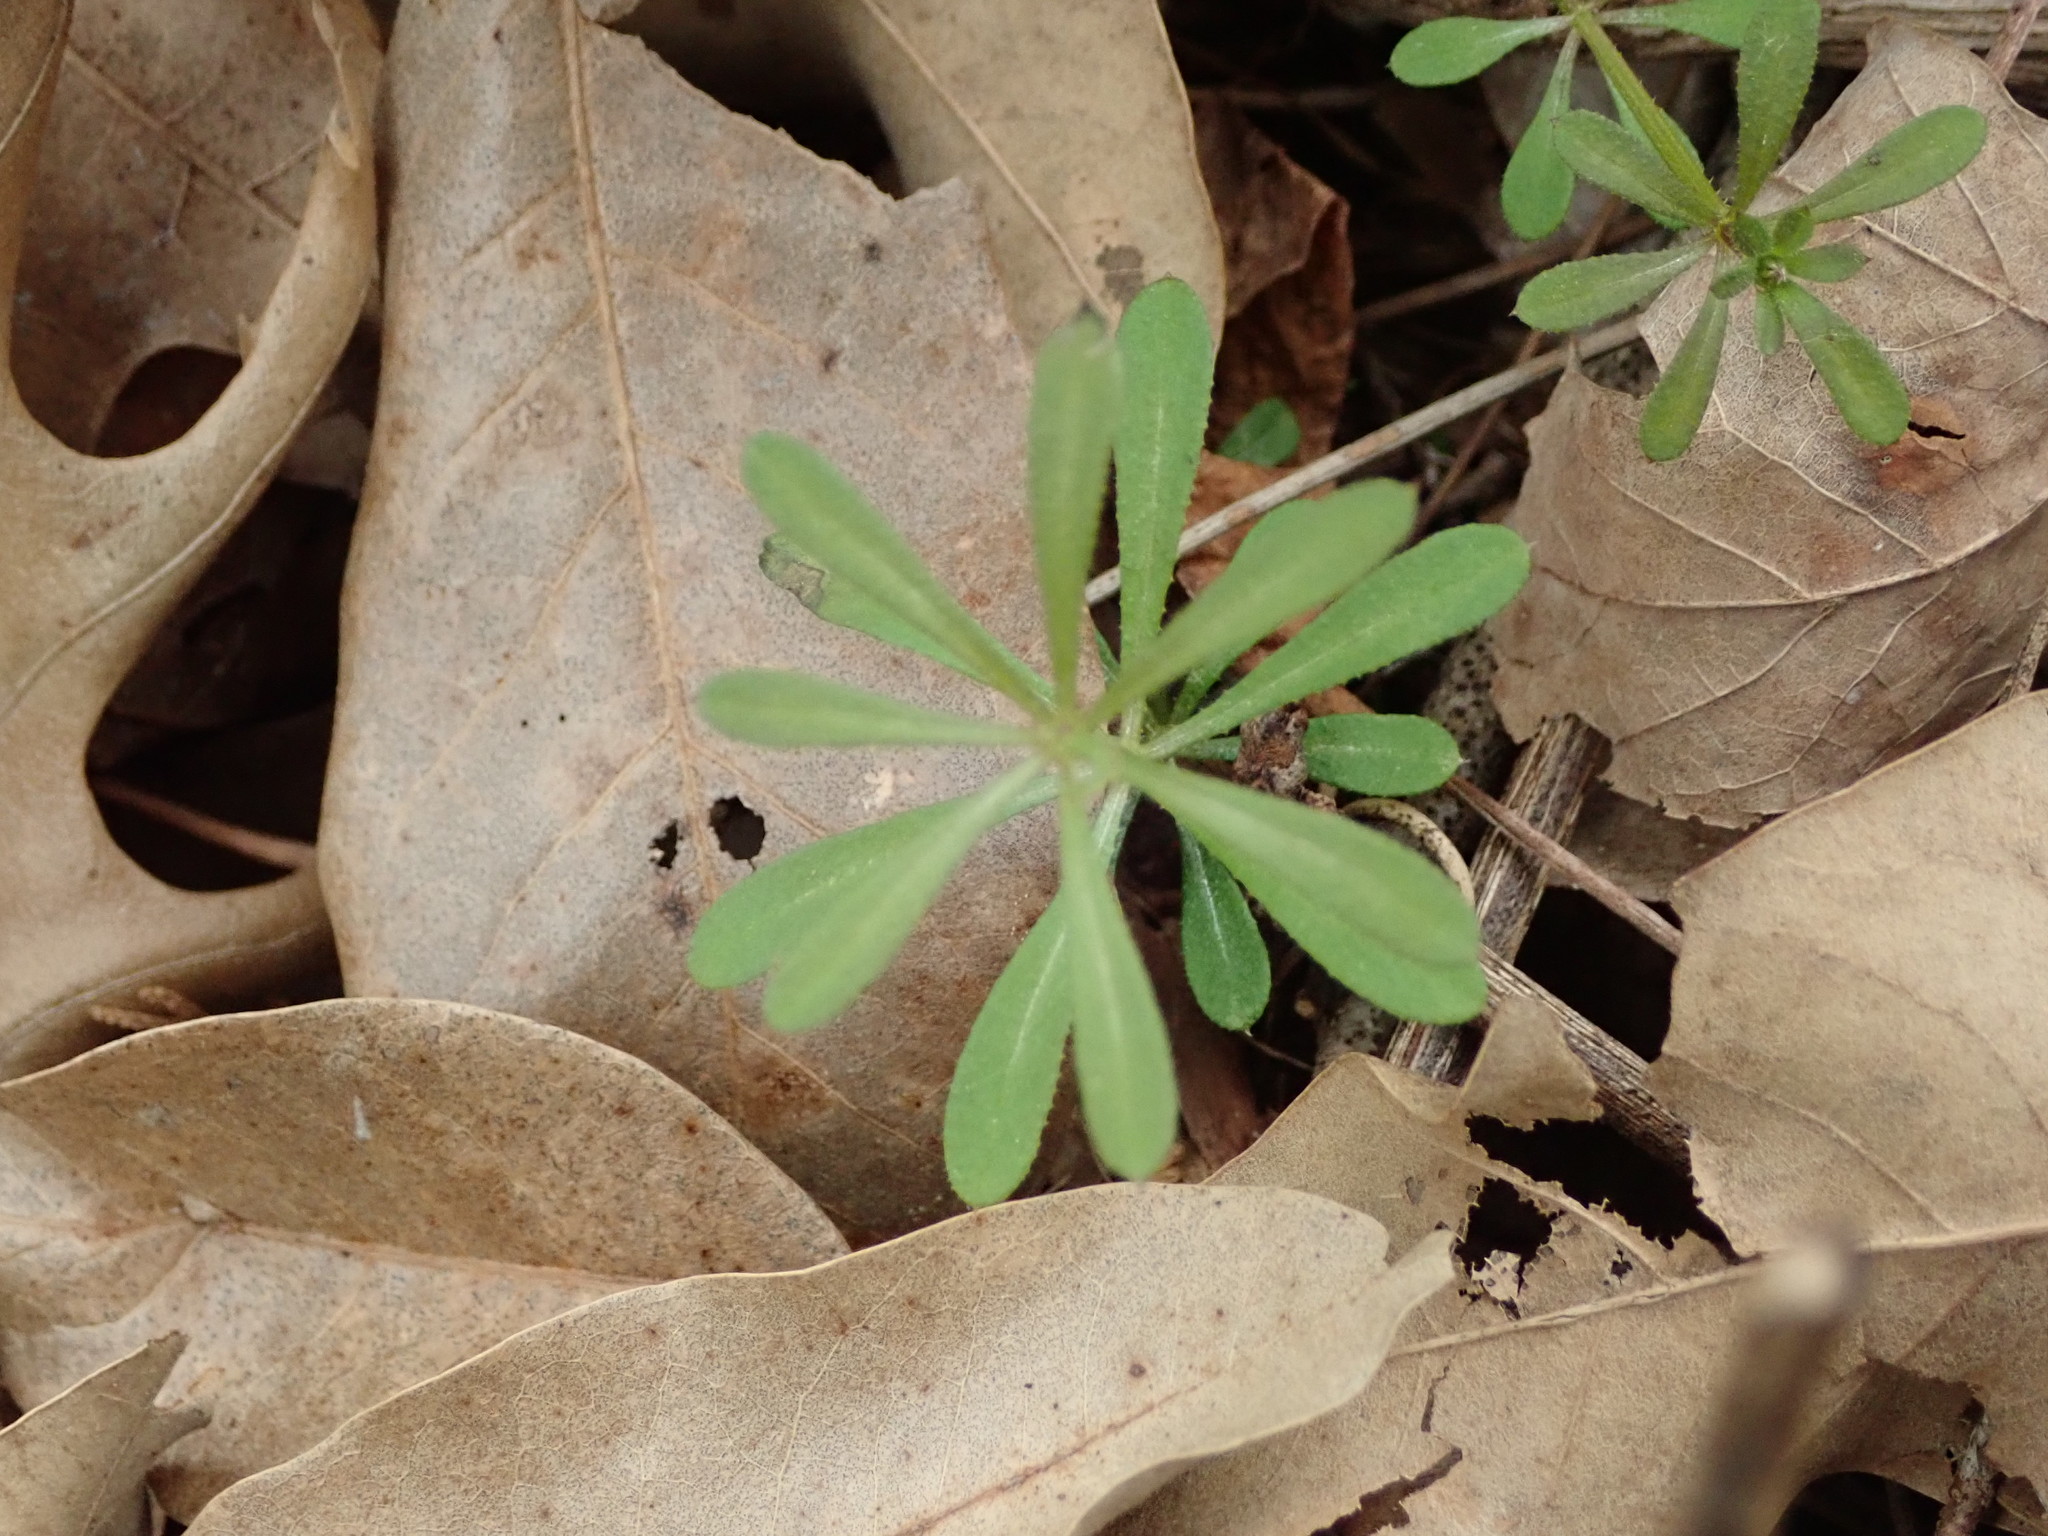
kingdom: Plantae
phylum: Tracheophyta
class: Magnoliopsida
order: Gentianales
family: Rubiaceae
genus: Galium
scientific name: Galium aparine
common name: Cleavers
